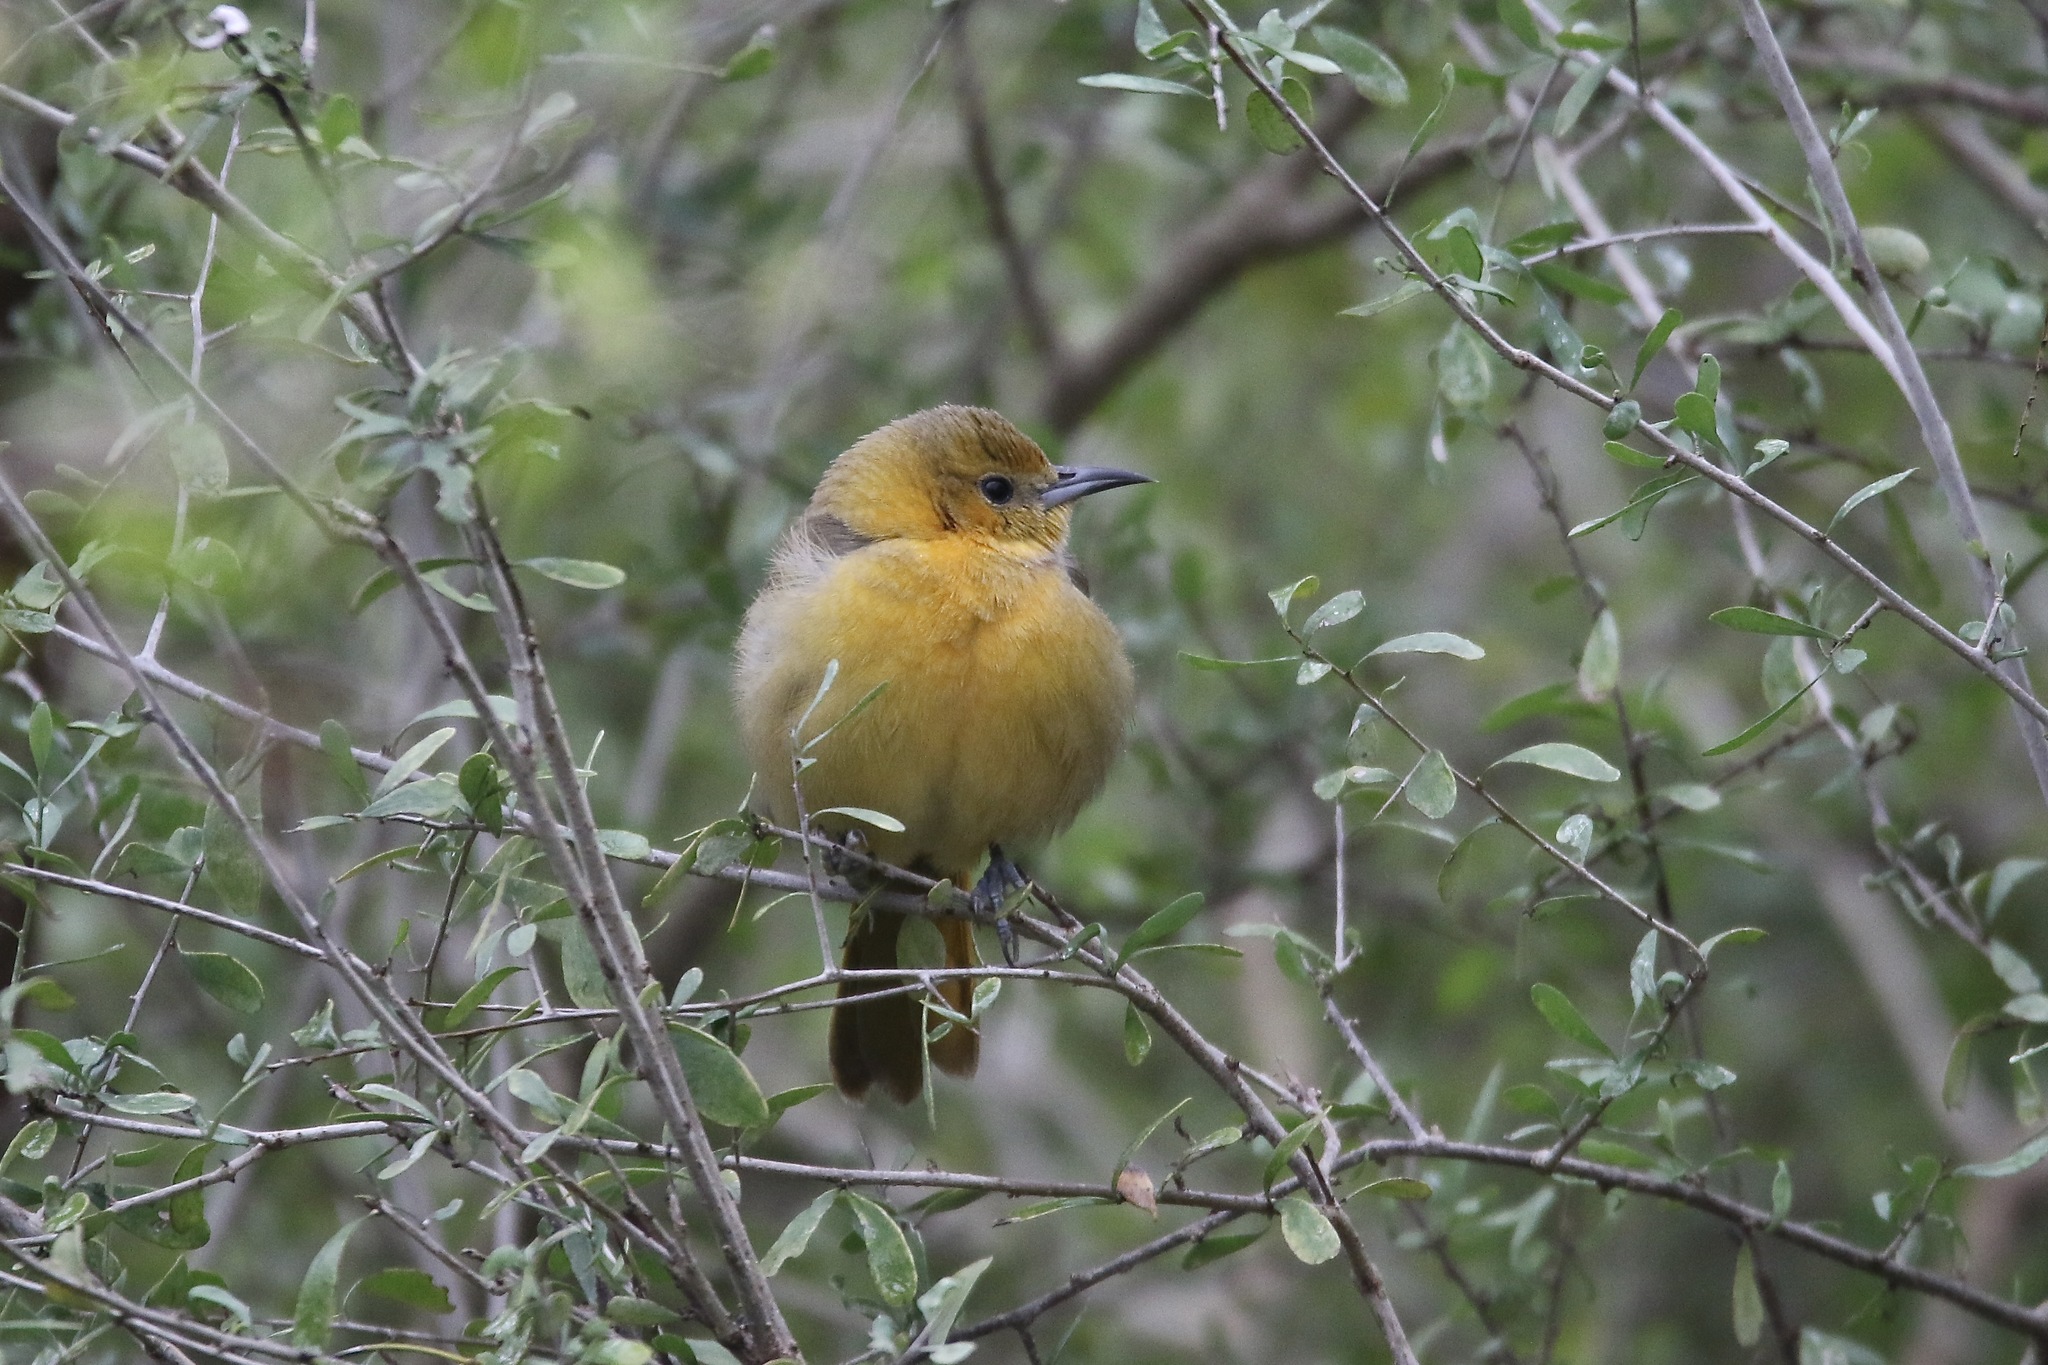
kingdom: Animalia
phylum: Chordata
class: Aves
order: Passeriformes
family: Icteridae
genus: Icterus
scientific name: Icterus cucullatus
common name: Hooded oriole
